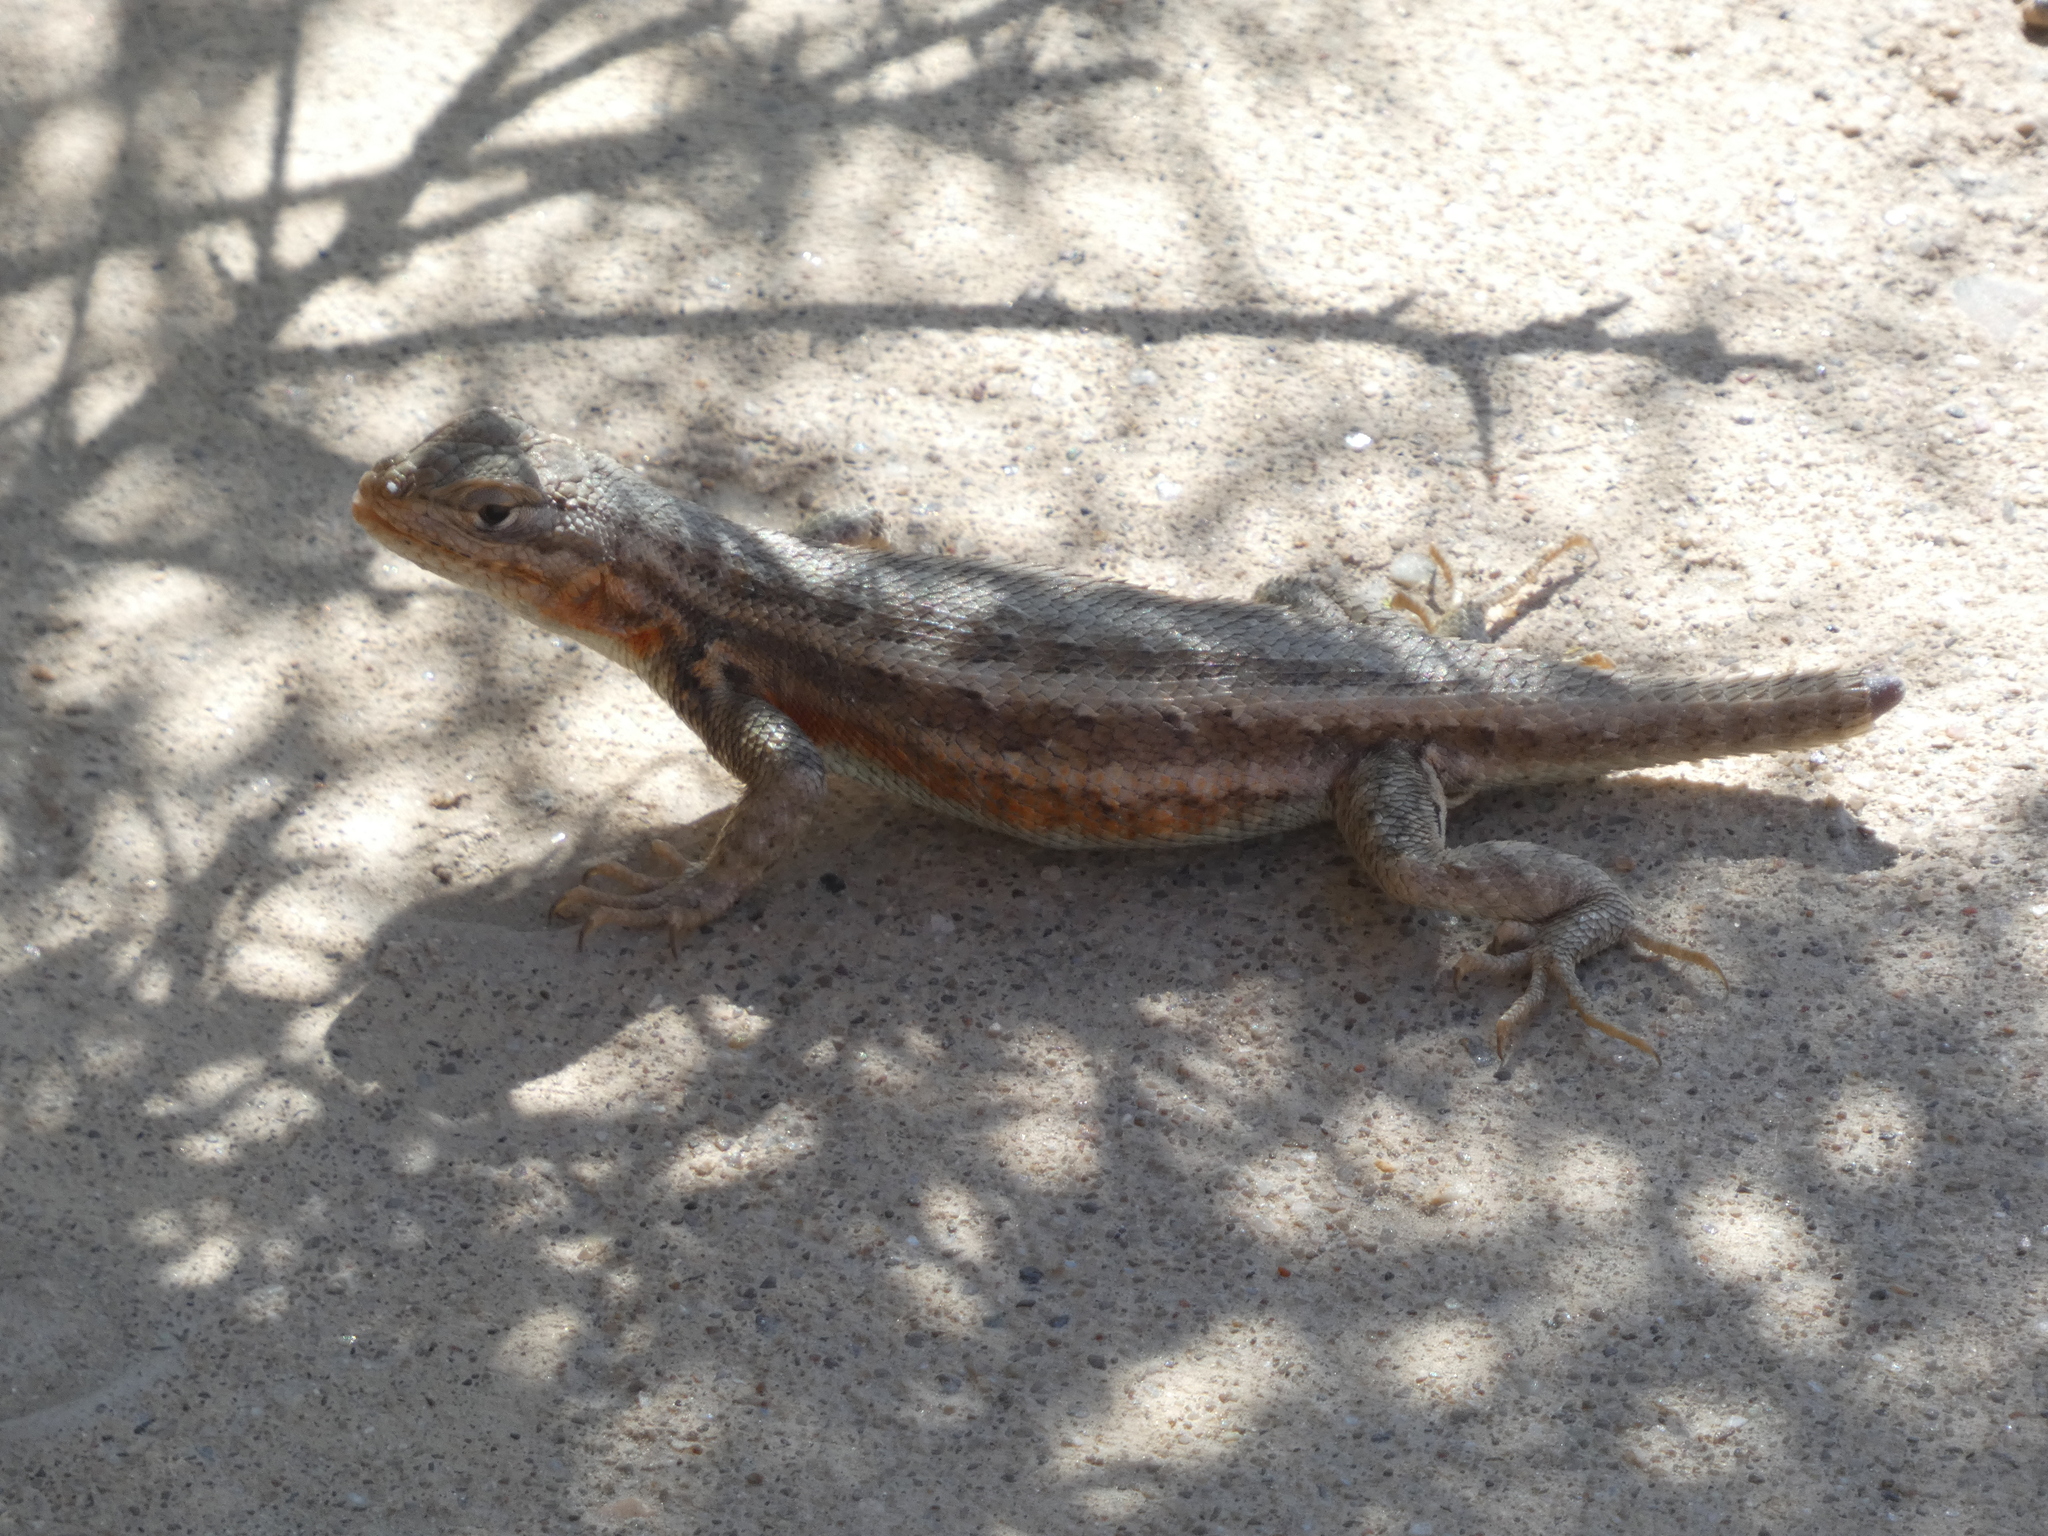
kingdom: Animalia
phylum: Chordata
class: Squamata
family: Phrynosomatidae
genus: Sceloporus
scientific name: Sceloporus graciosus
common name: Sagebrush lizard
